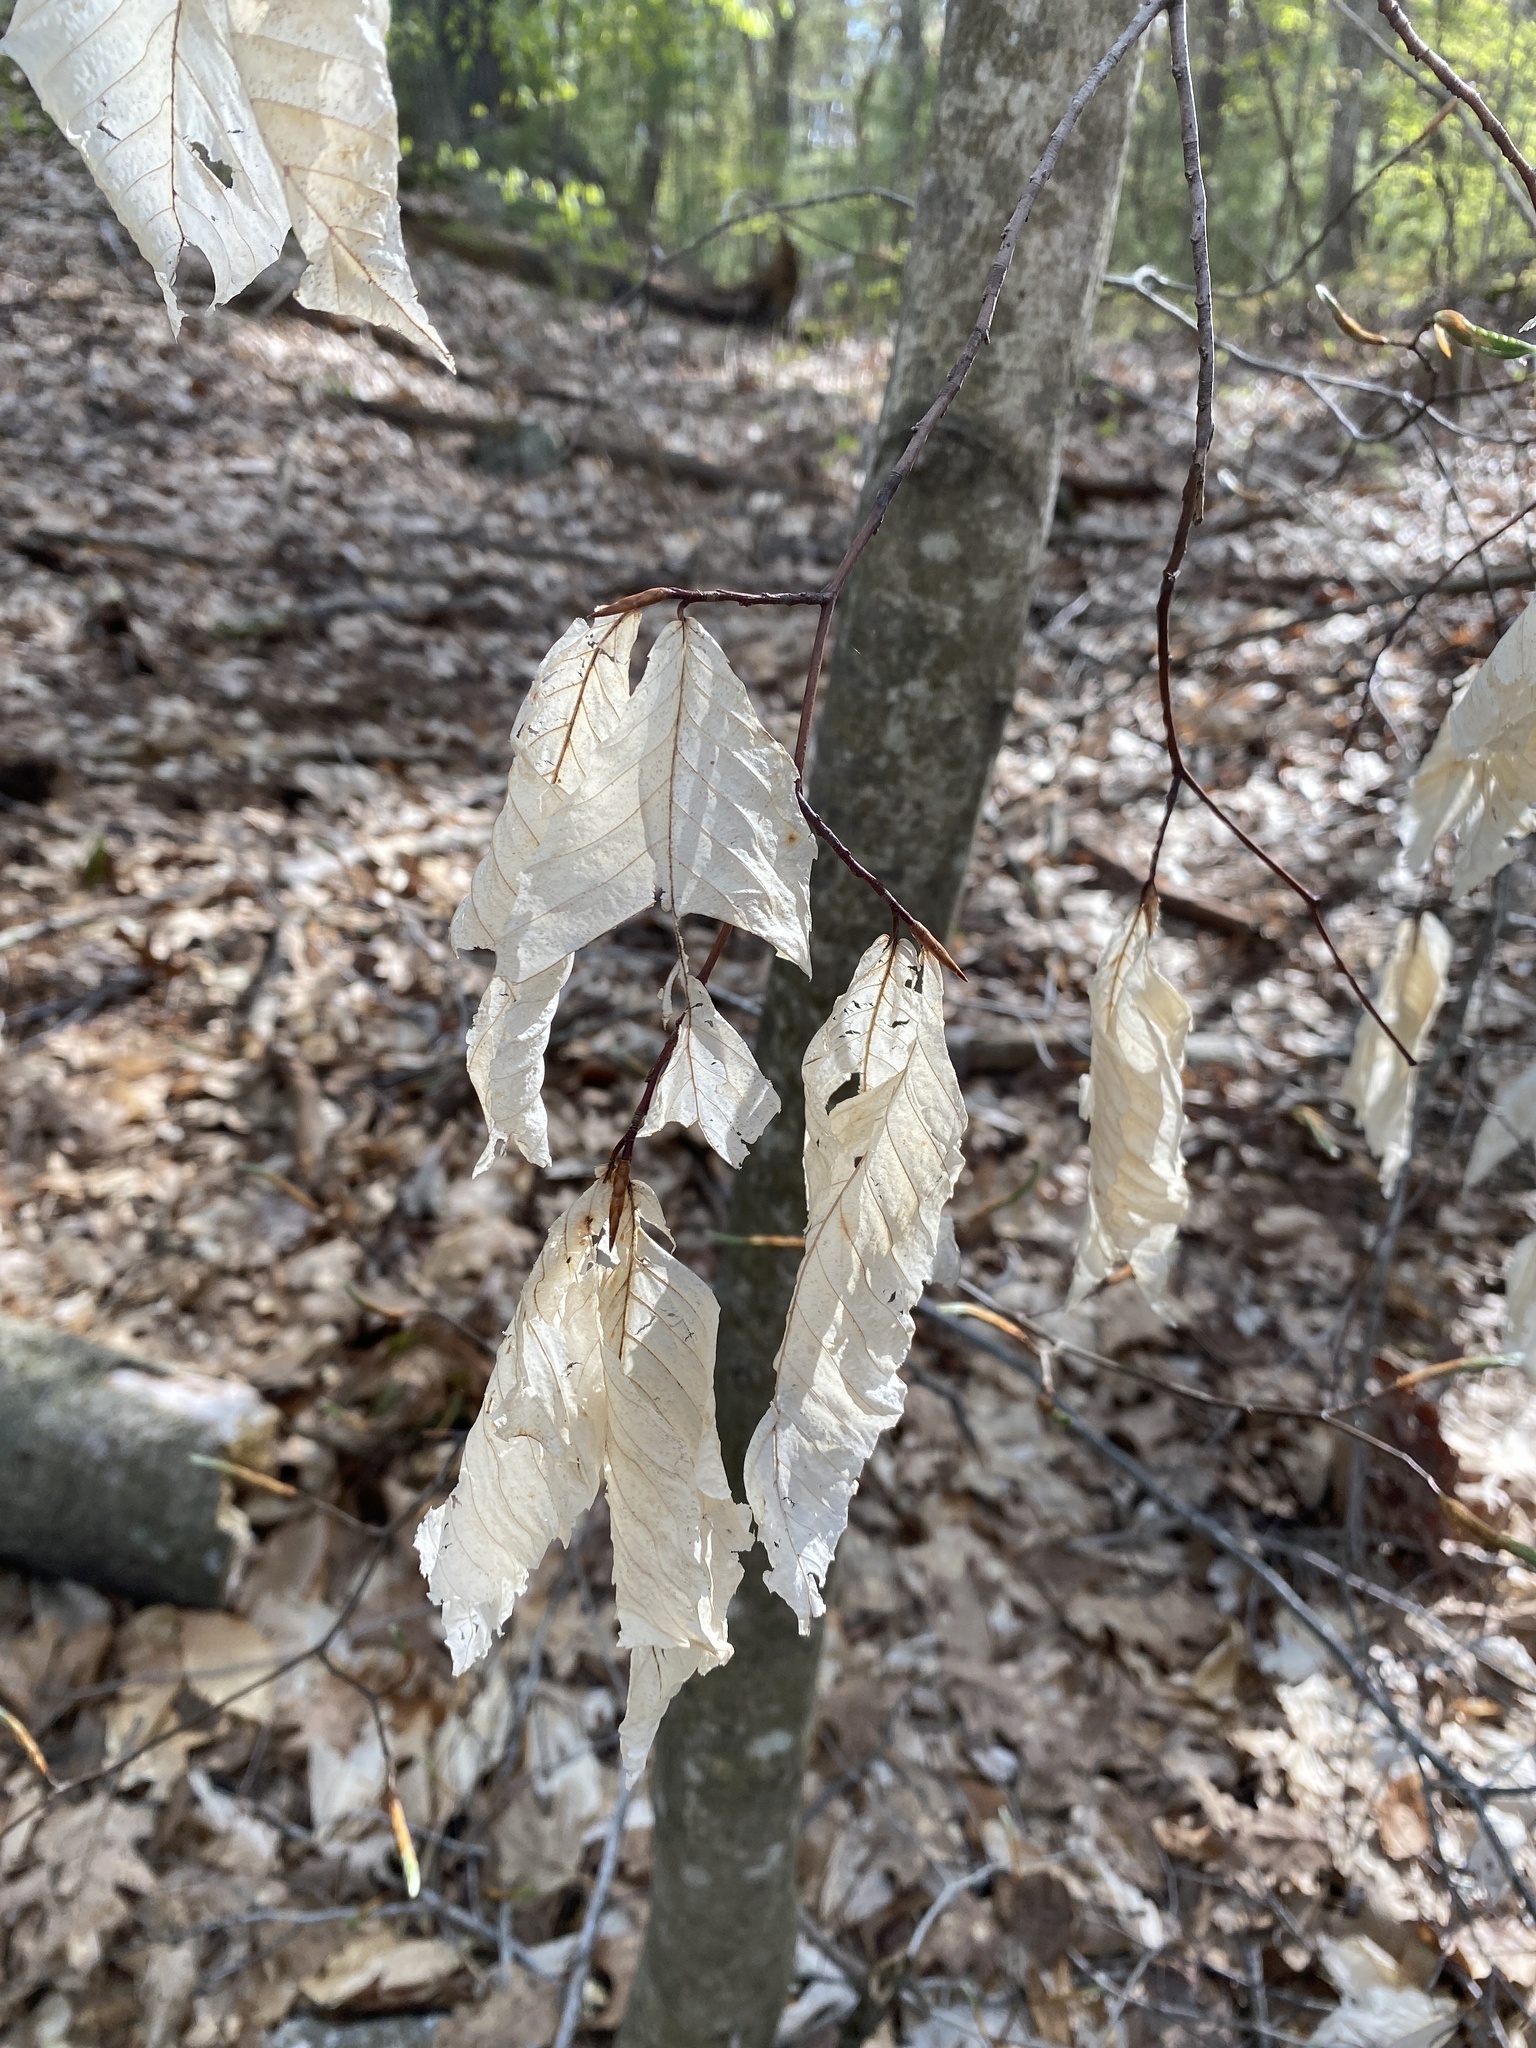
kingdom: Plantae
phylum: Tracheophyta
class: Magnoliopsida
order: Fagales
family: Fagaceae
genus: Fagus
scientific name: Fagus grandifolia
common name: American beech
